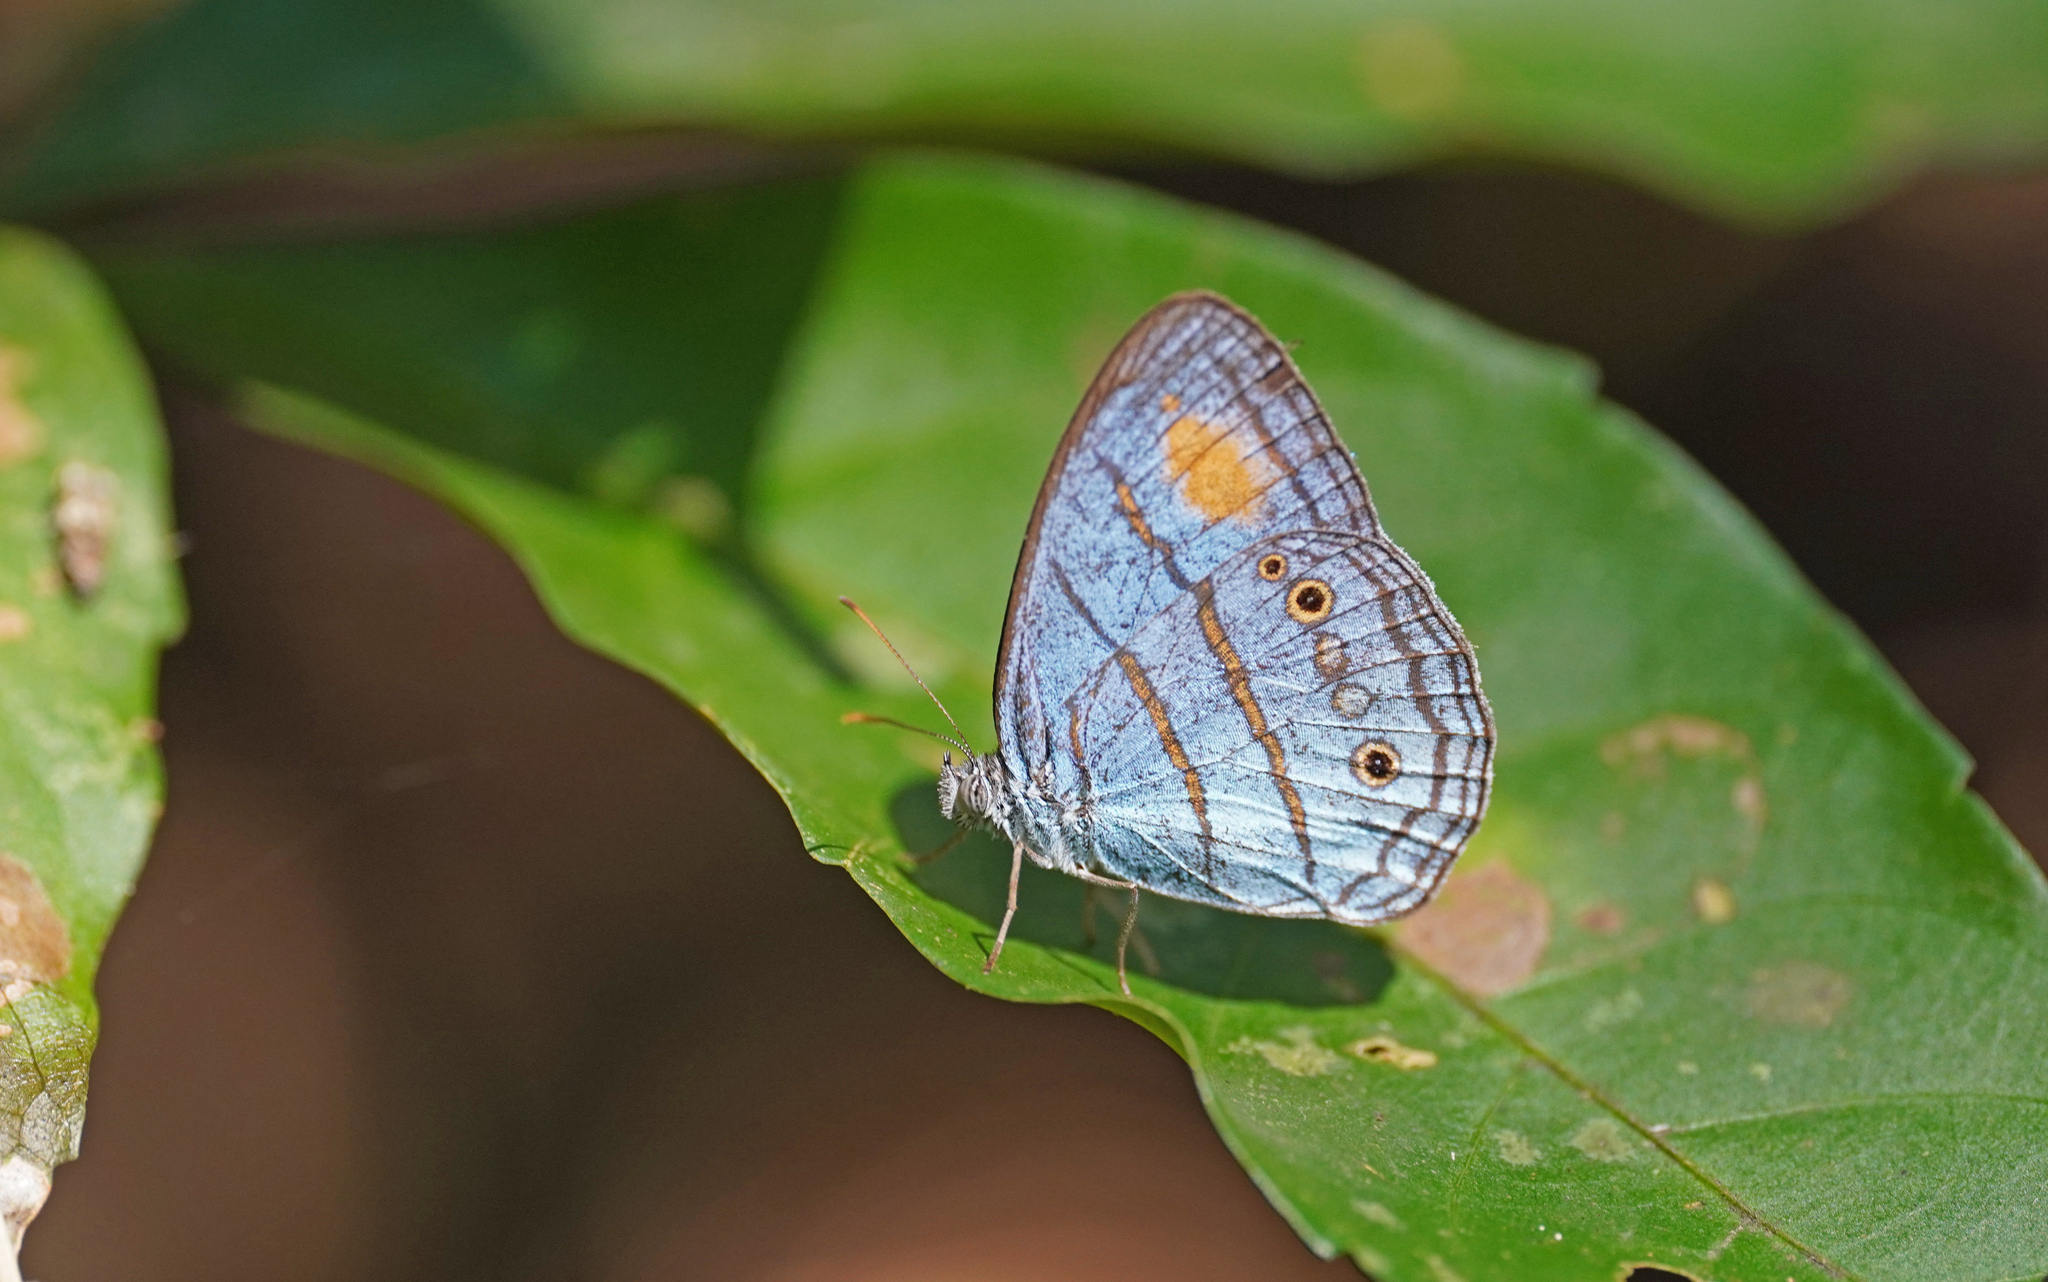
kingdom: Animalia
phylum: Arthropoda
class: Insecta
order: Lepidoptera
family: Nymphalidae
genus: Caeruleuptychia
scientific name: Caeruleuptychia helios
